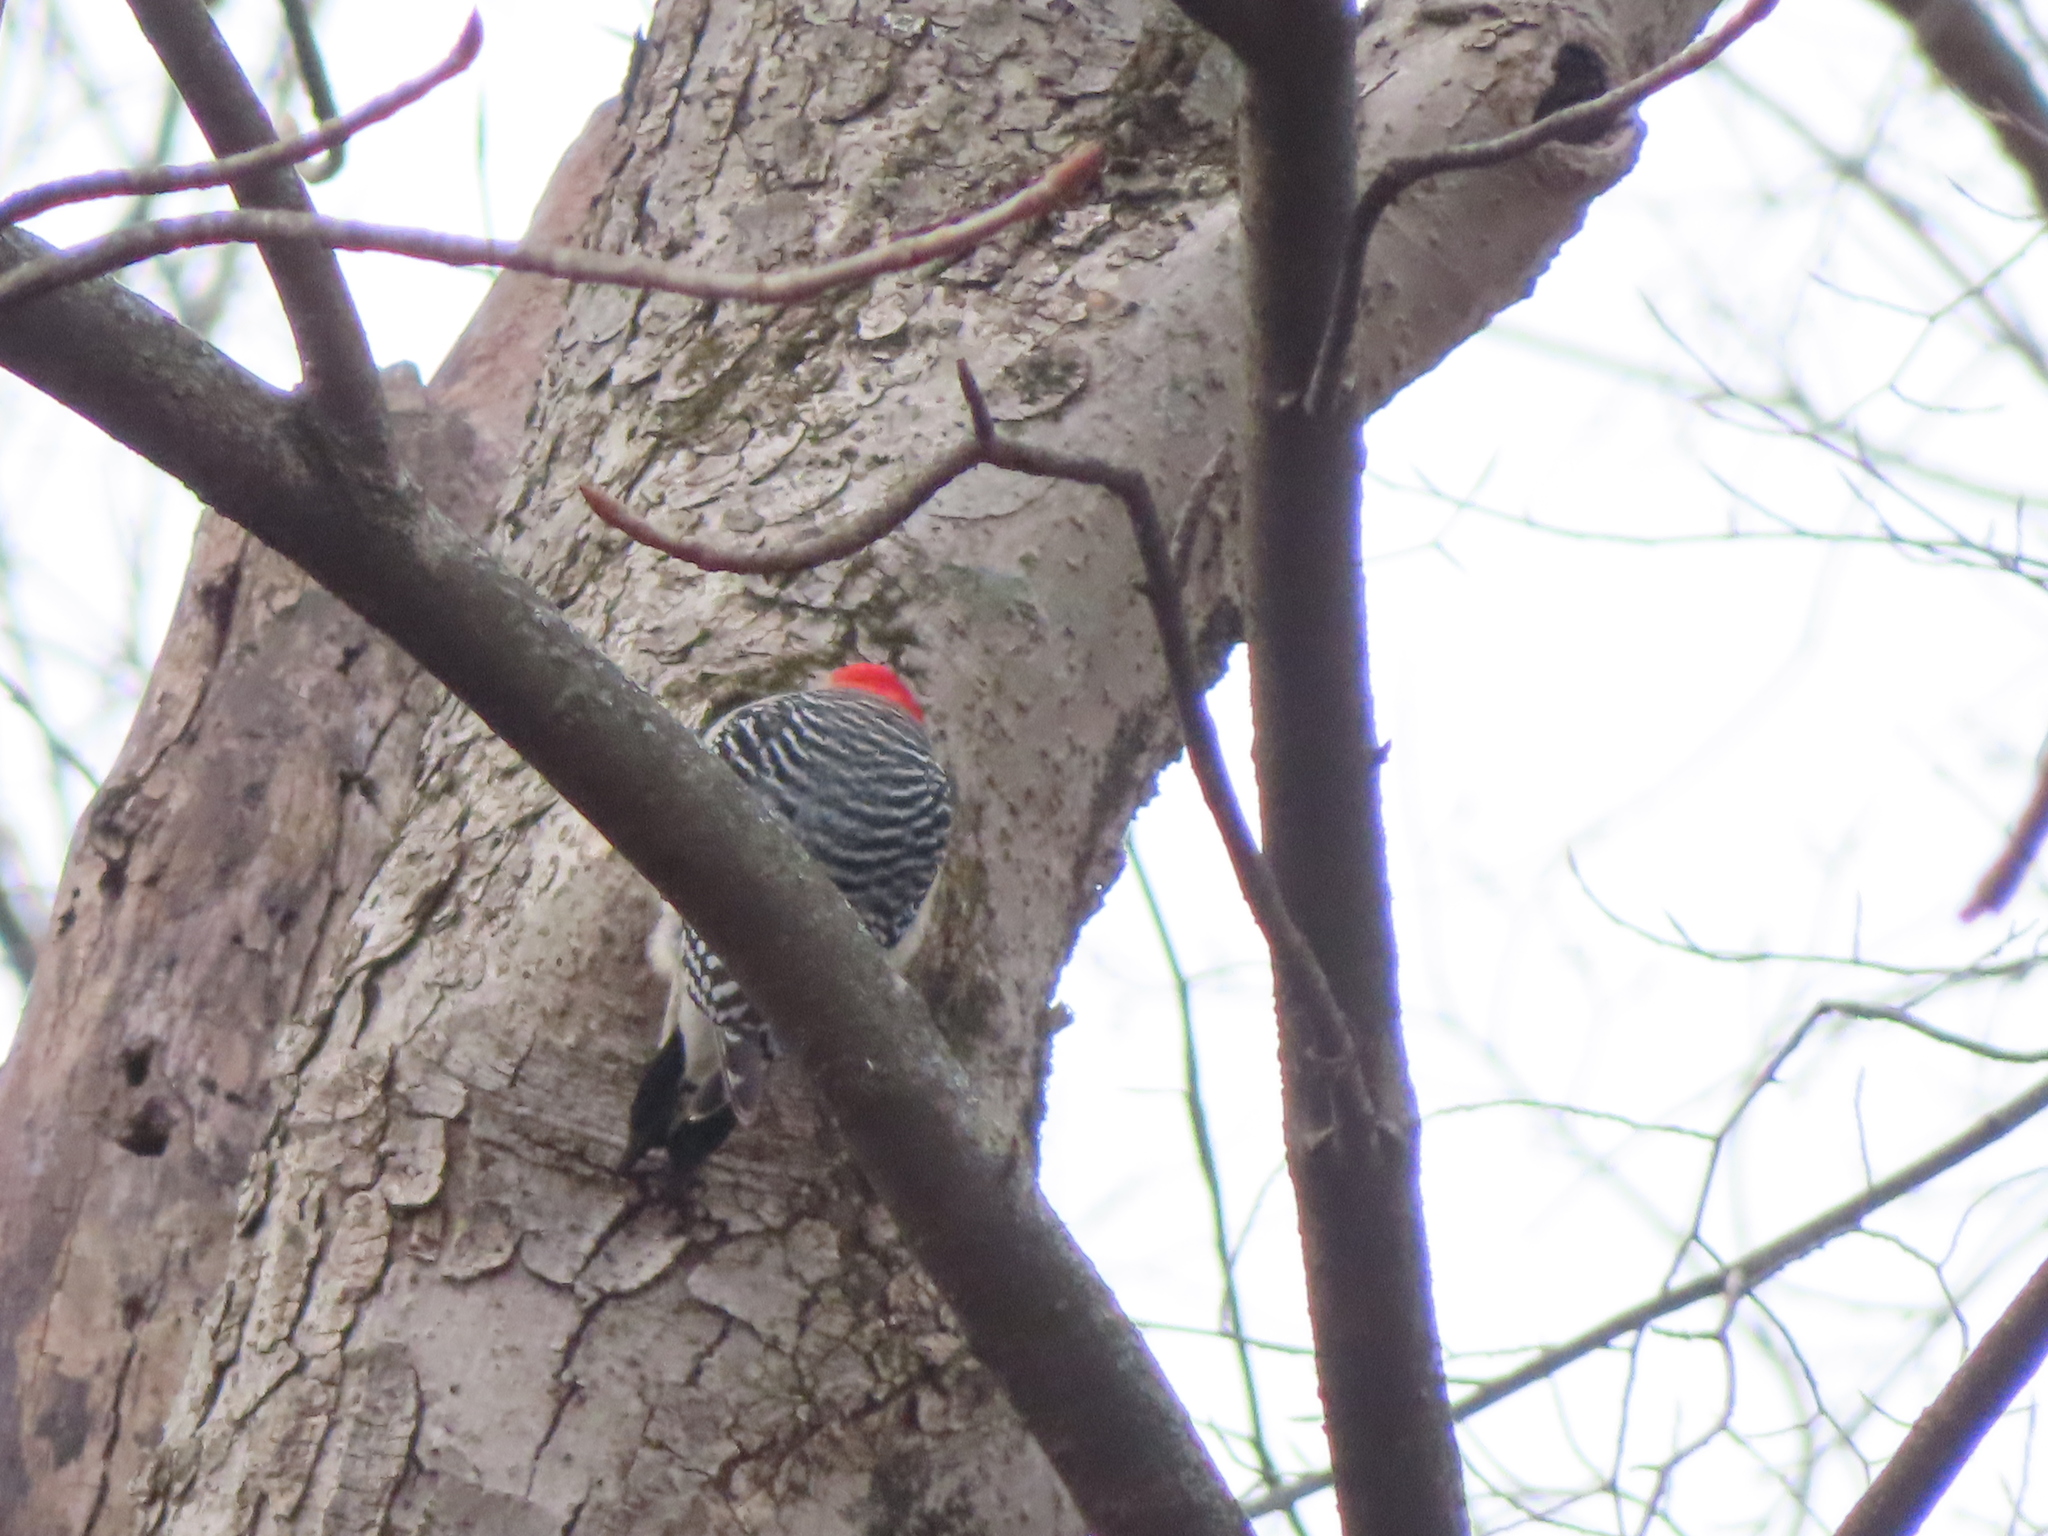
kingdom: Animalia
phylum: Chordata
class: Aves
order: Piciformes
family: Picidae
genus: Melanerpes
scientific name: Melanerpes carolinus
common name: Red-bellied woodpecker
